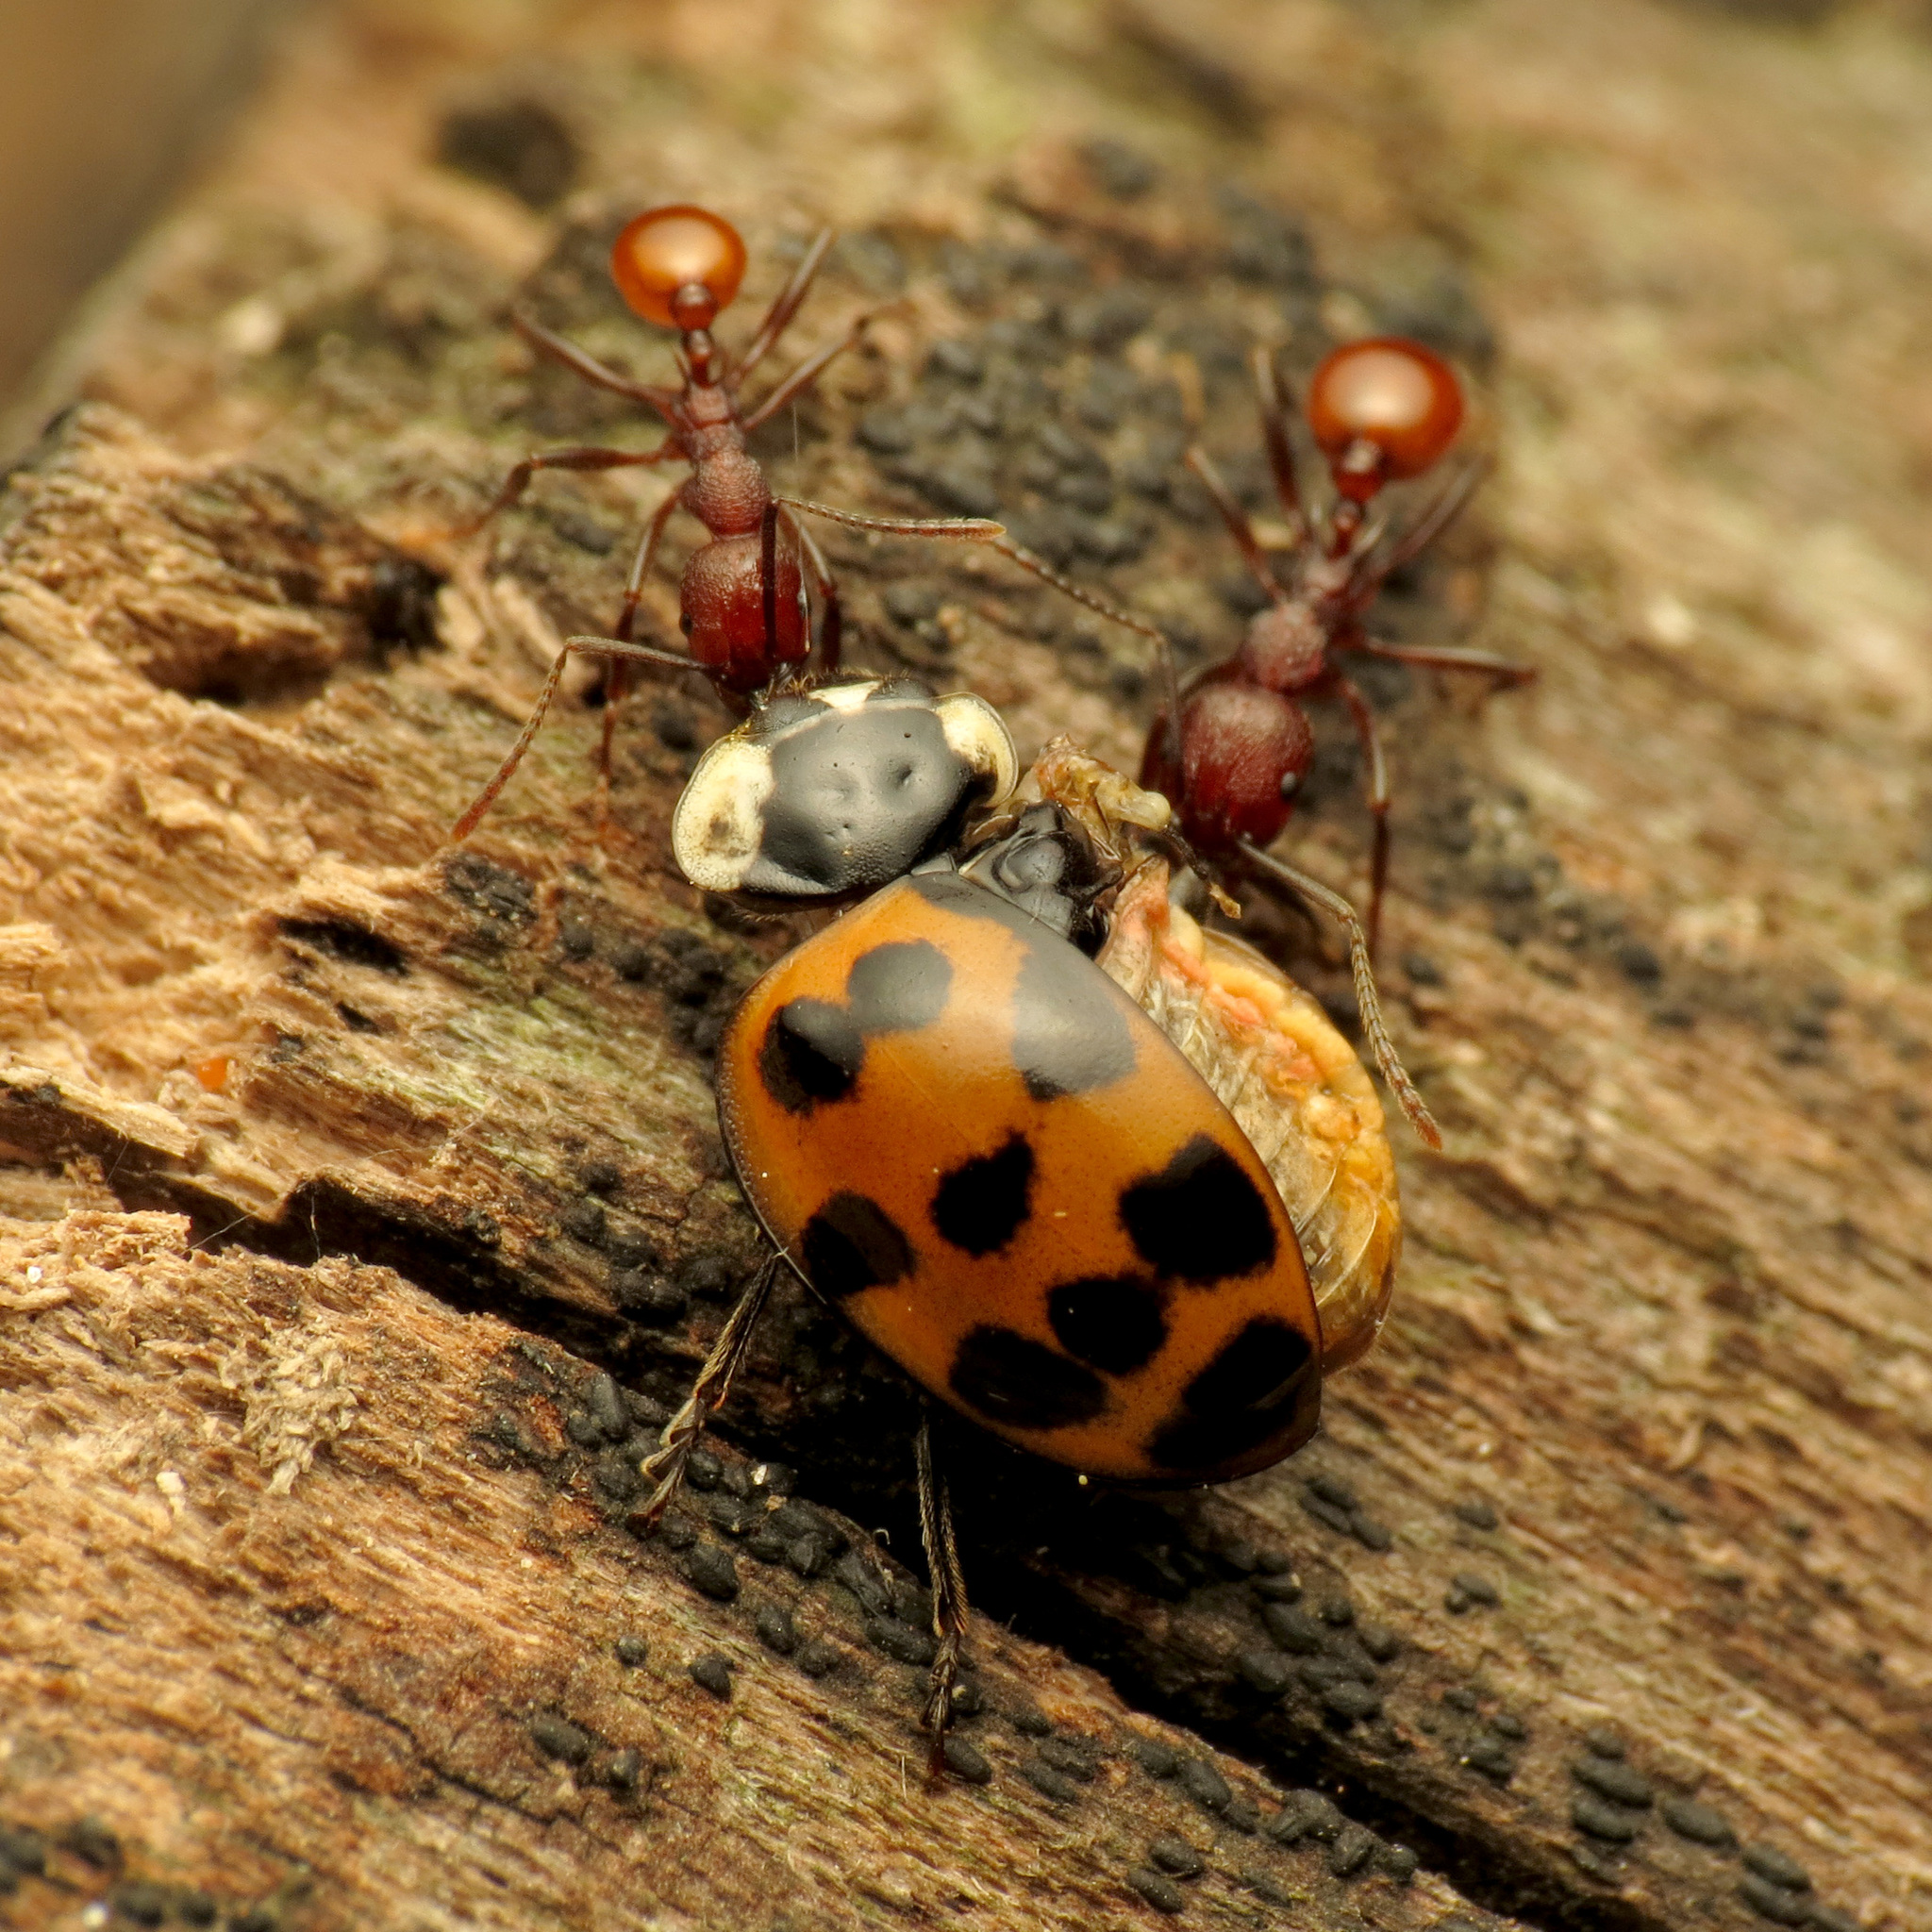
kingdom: Animalia
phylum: Arthropoda
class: Insecta
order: Coleoptera
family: Coccinellidae
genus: Harmonia
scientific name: Harmonia axyridis
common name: Harlequin ladybird
